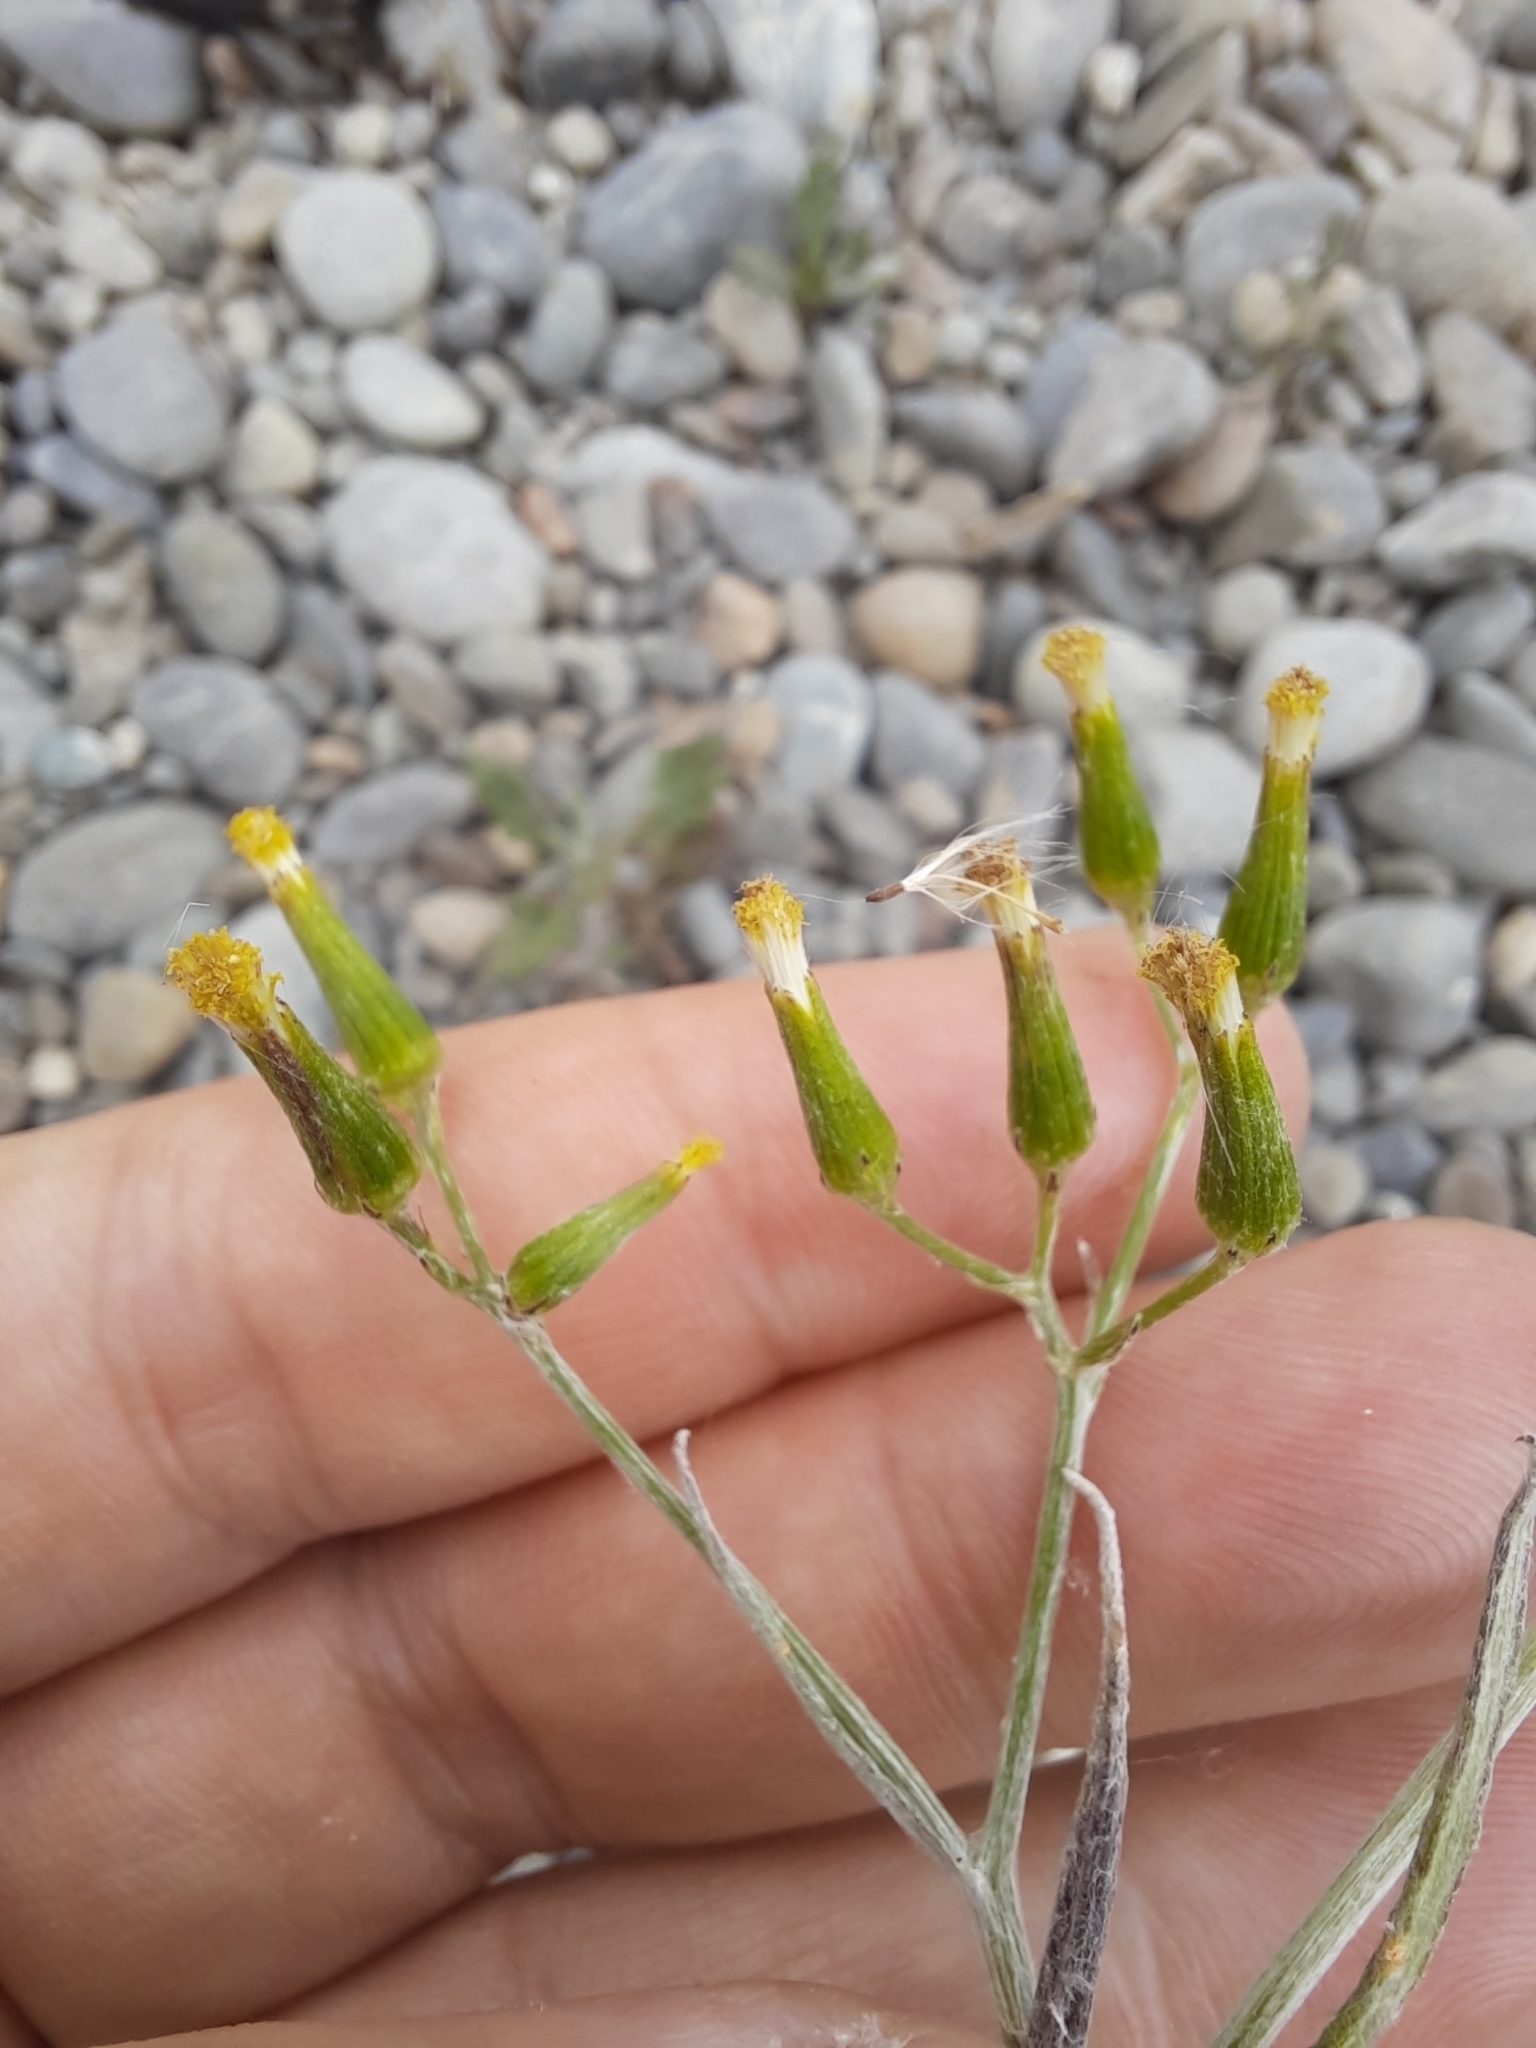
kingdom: Plantae
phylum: Tracheophyta
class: Magnoliopsida
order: Asterales
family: Asteraceae
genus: Senecio
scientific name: Senecio quadridentatus
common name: Cotton fireweed
